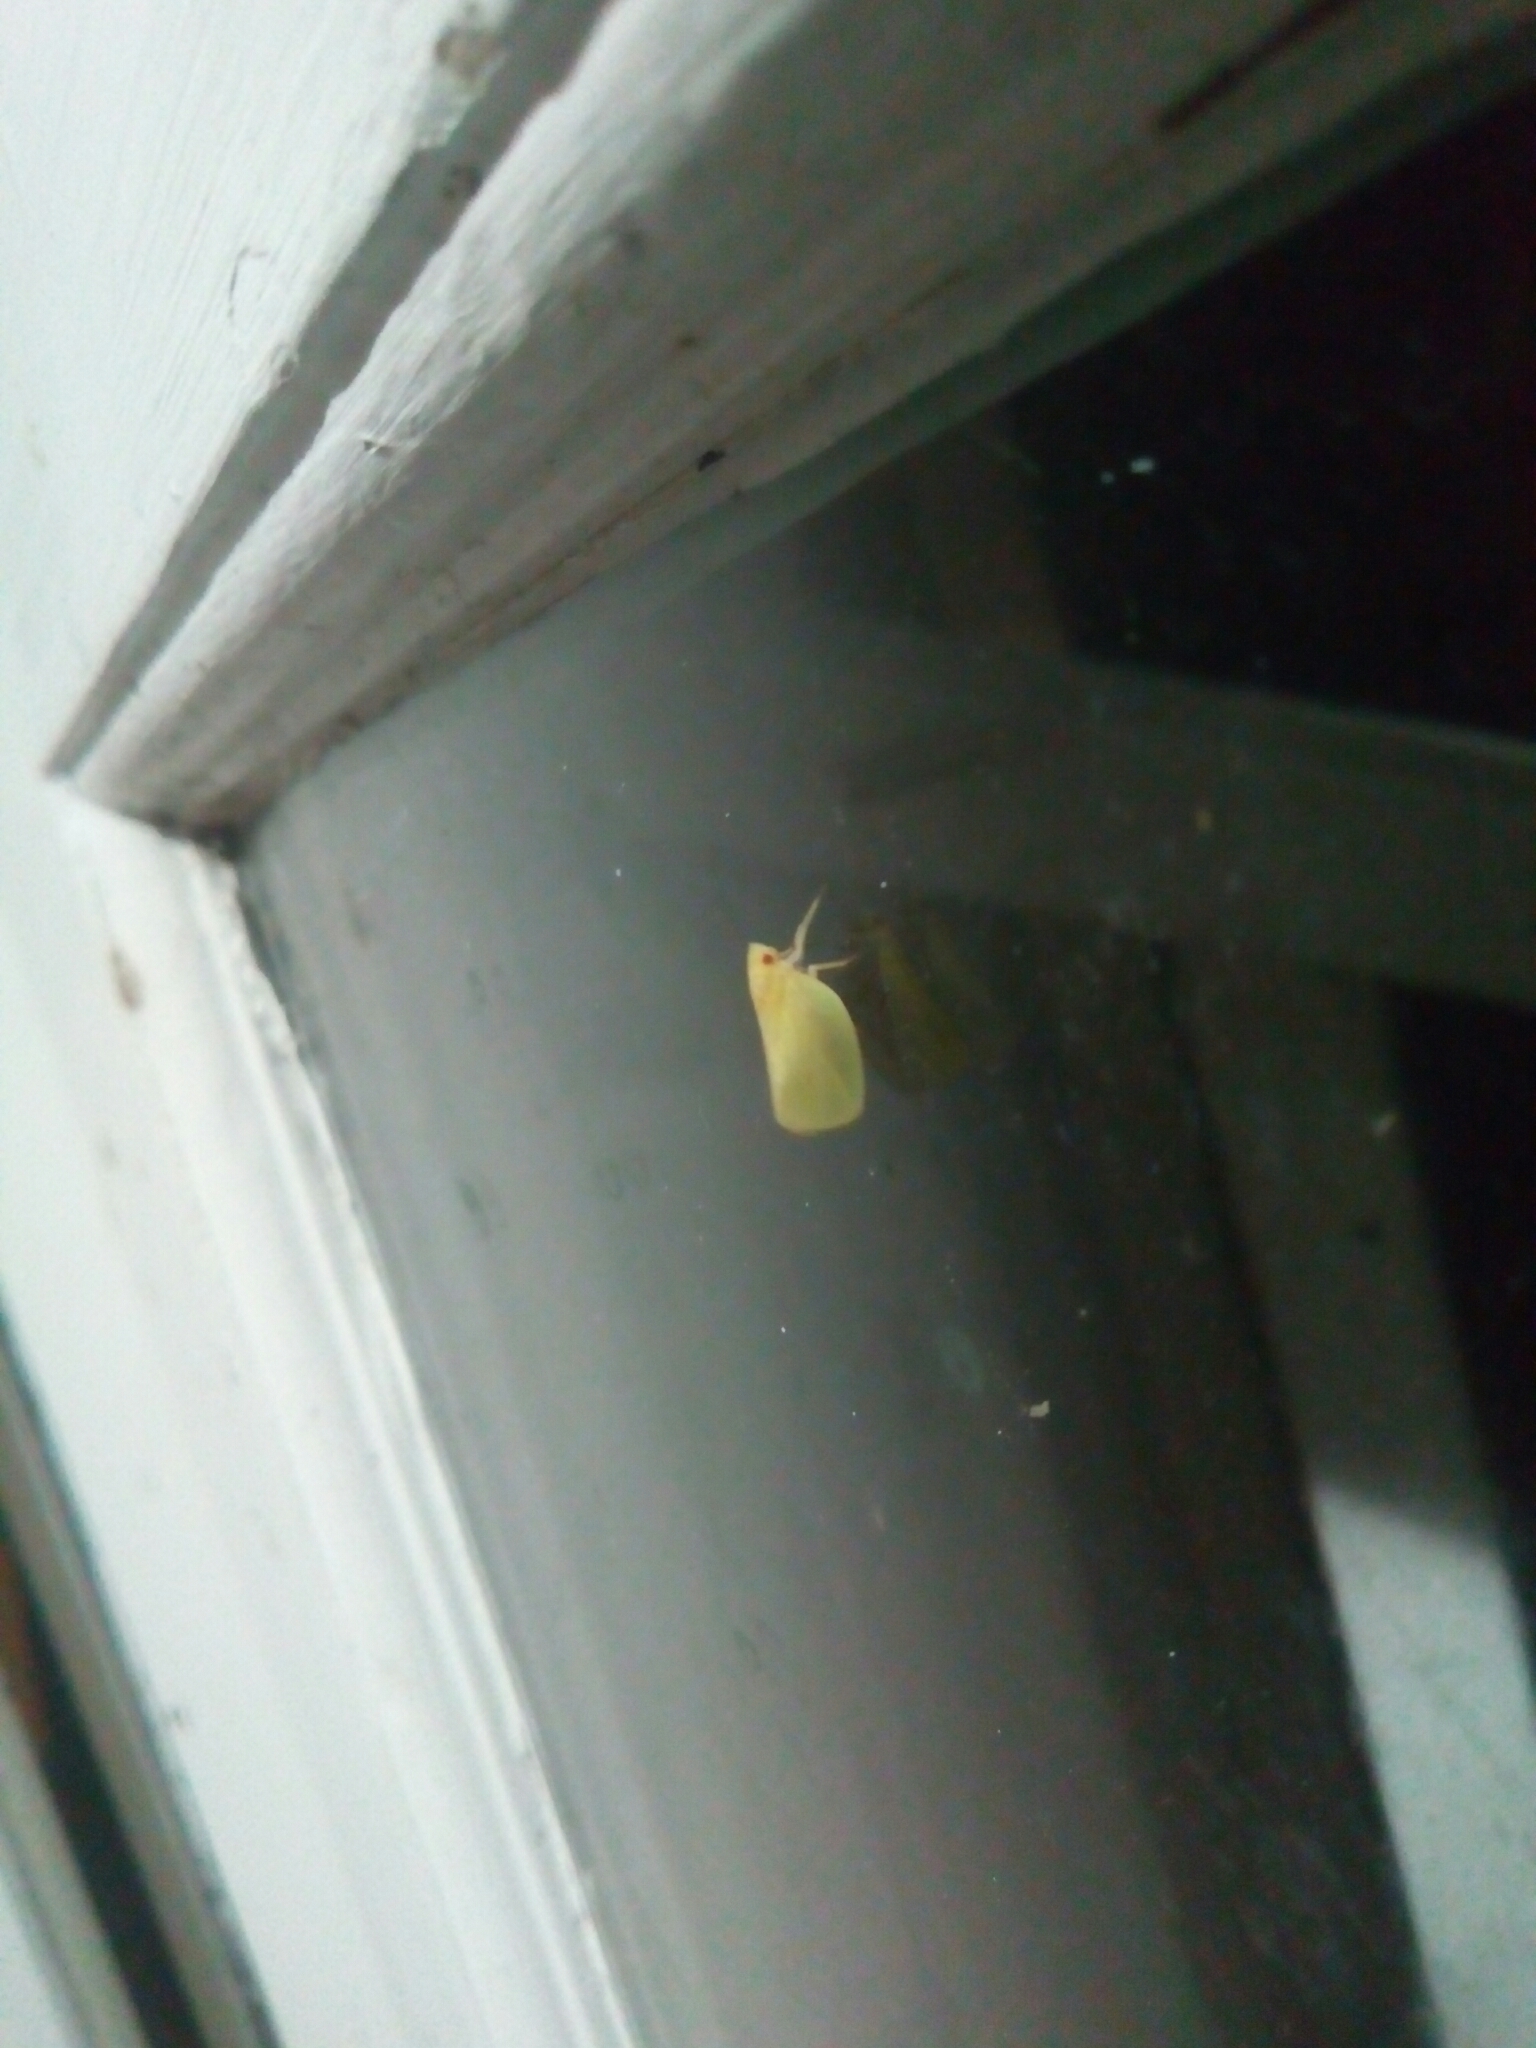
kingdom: Animalia
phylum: Arthropoda
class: Insecta
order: Hemiptera
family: Acanaloniidae
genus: Acanalonia
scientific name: Acanalonia conica
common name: Green cone-headed planthopper
